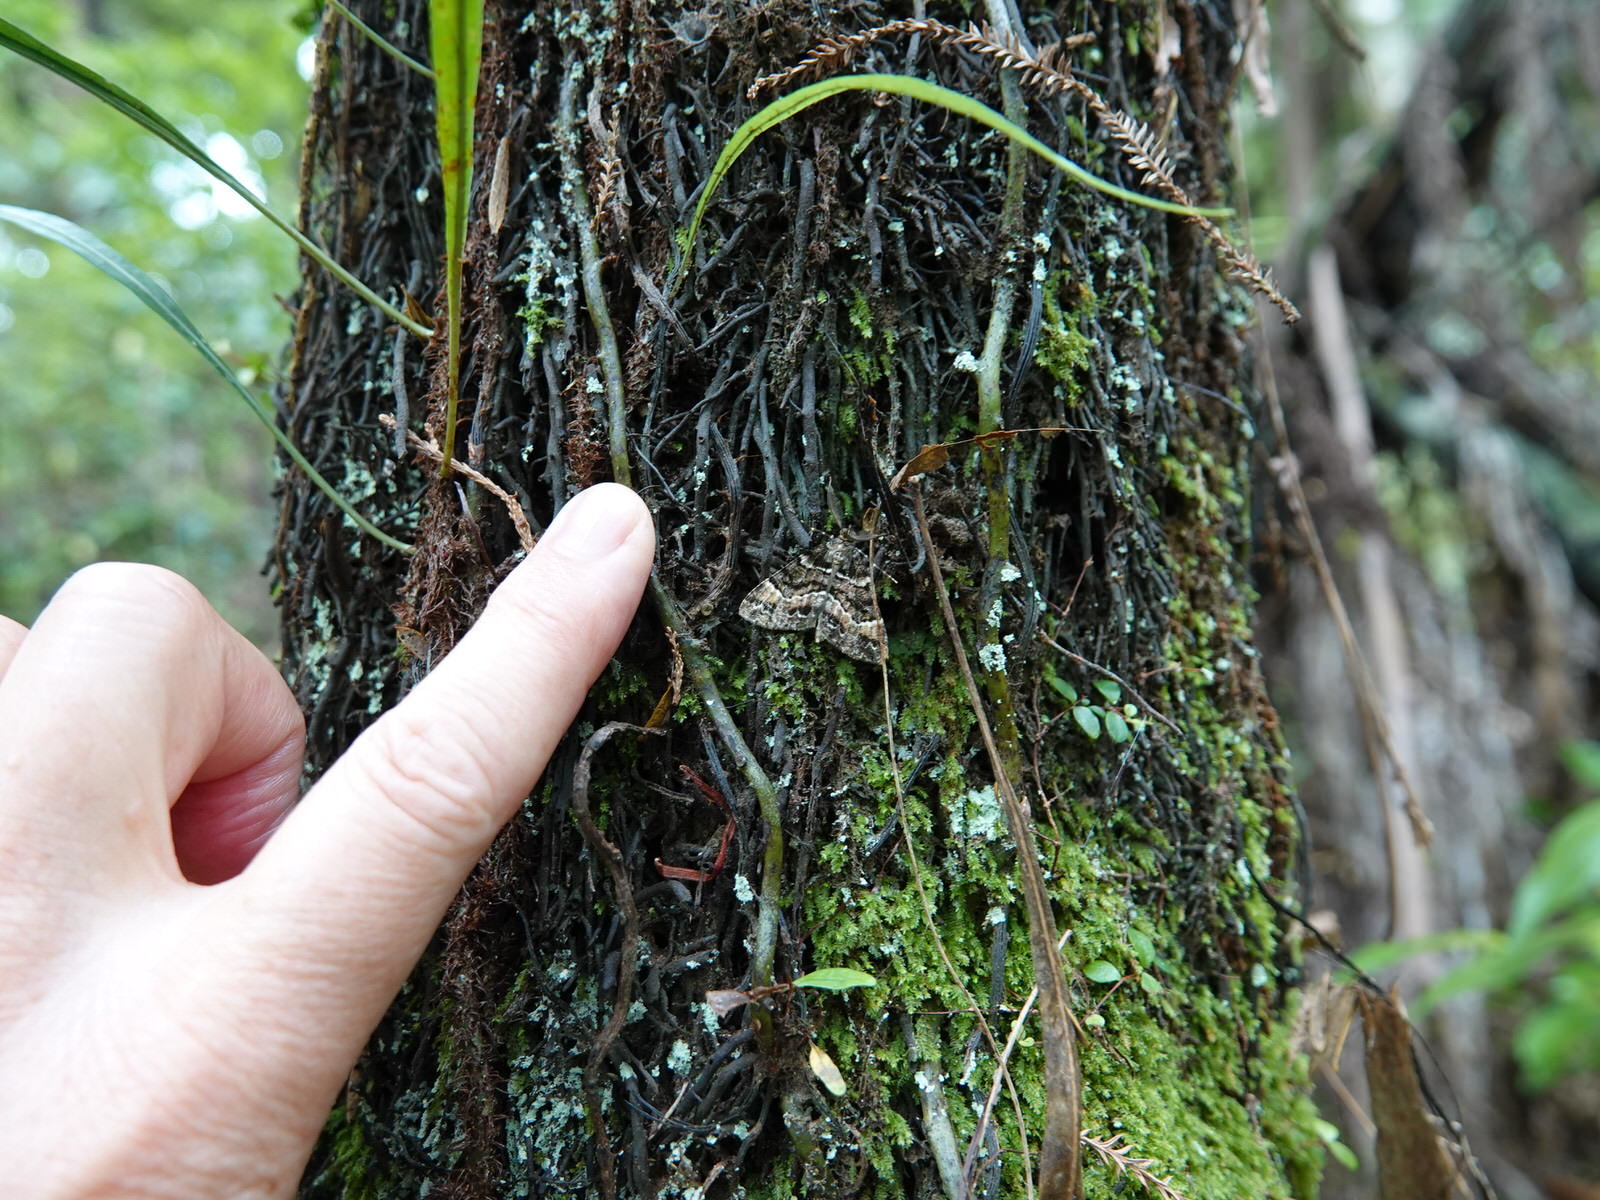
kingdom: Animalia
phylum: Arthropoda
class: Insecta
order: Lepidoptera
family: Geometridae
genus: Pseudocoremia
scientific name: Pseudocoremia productata
